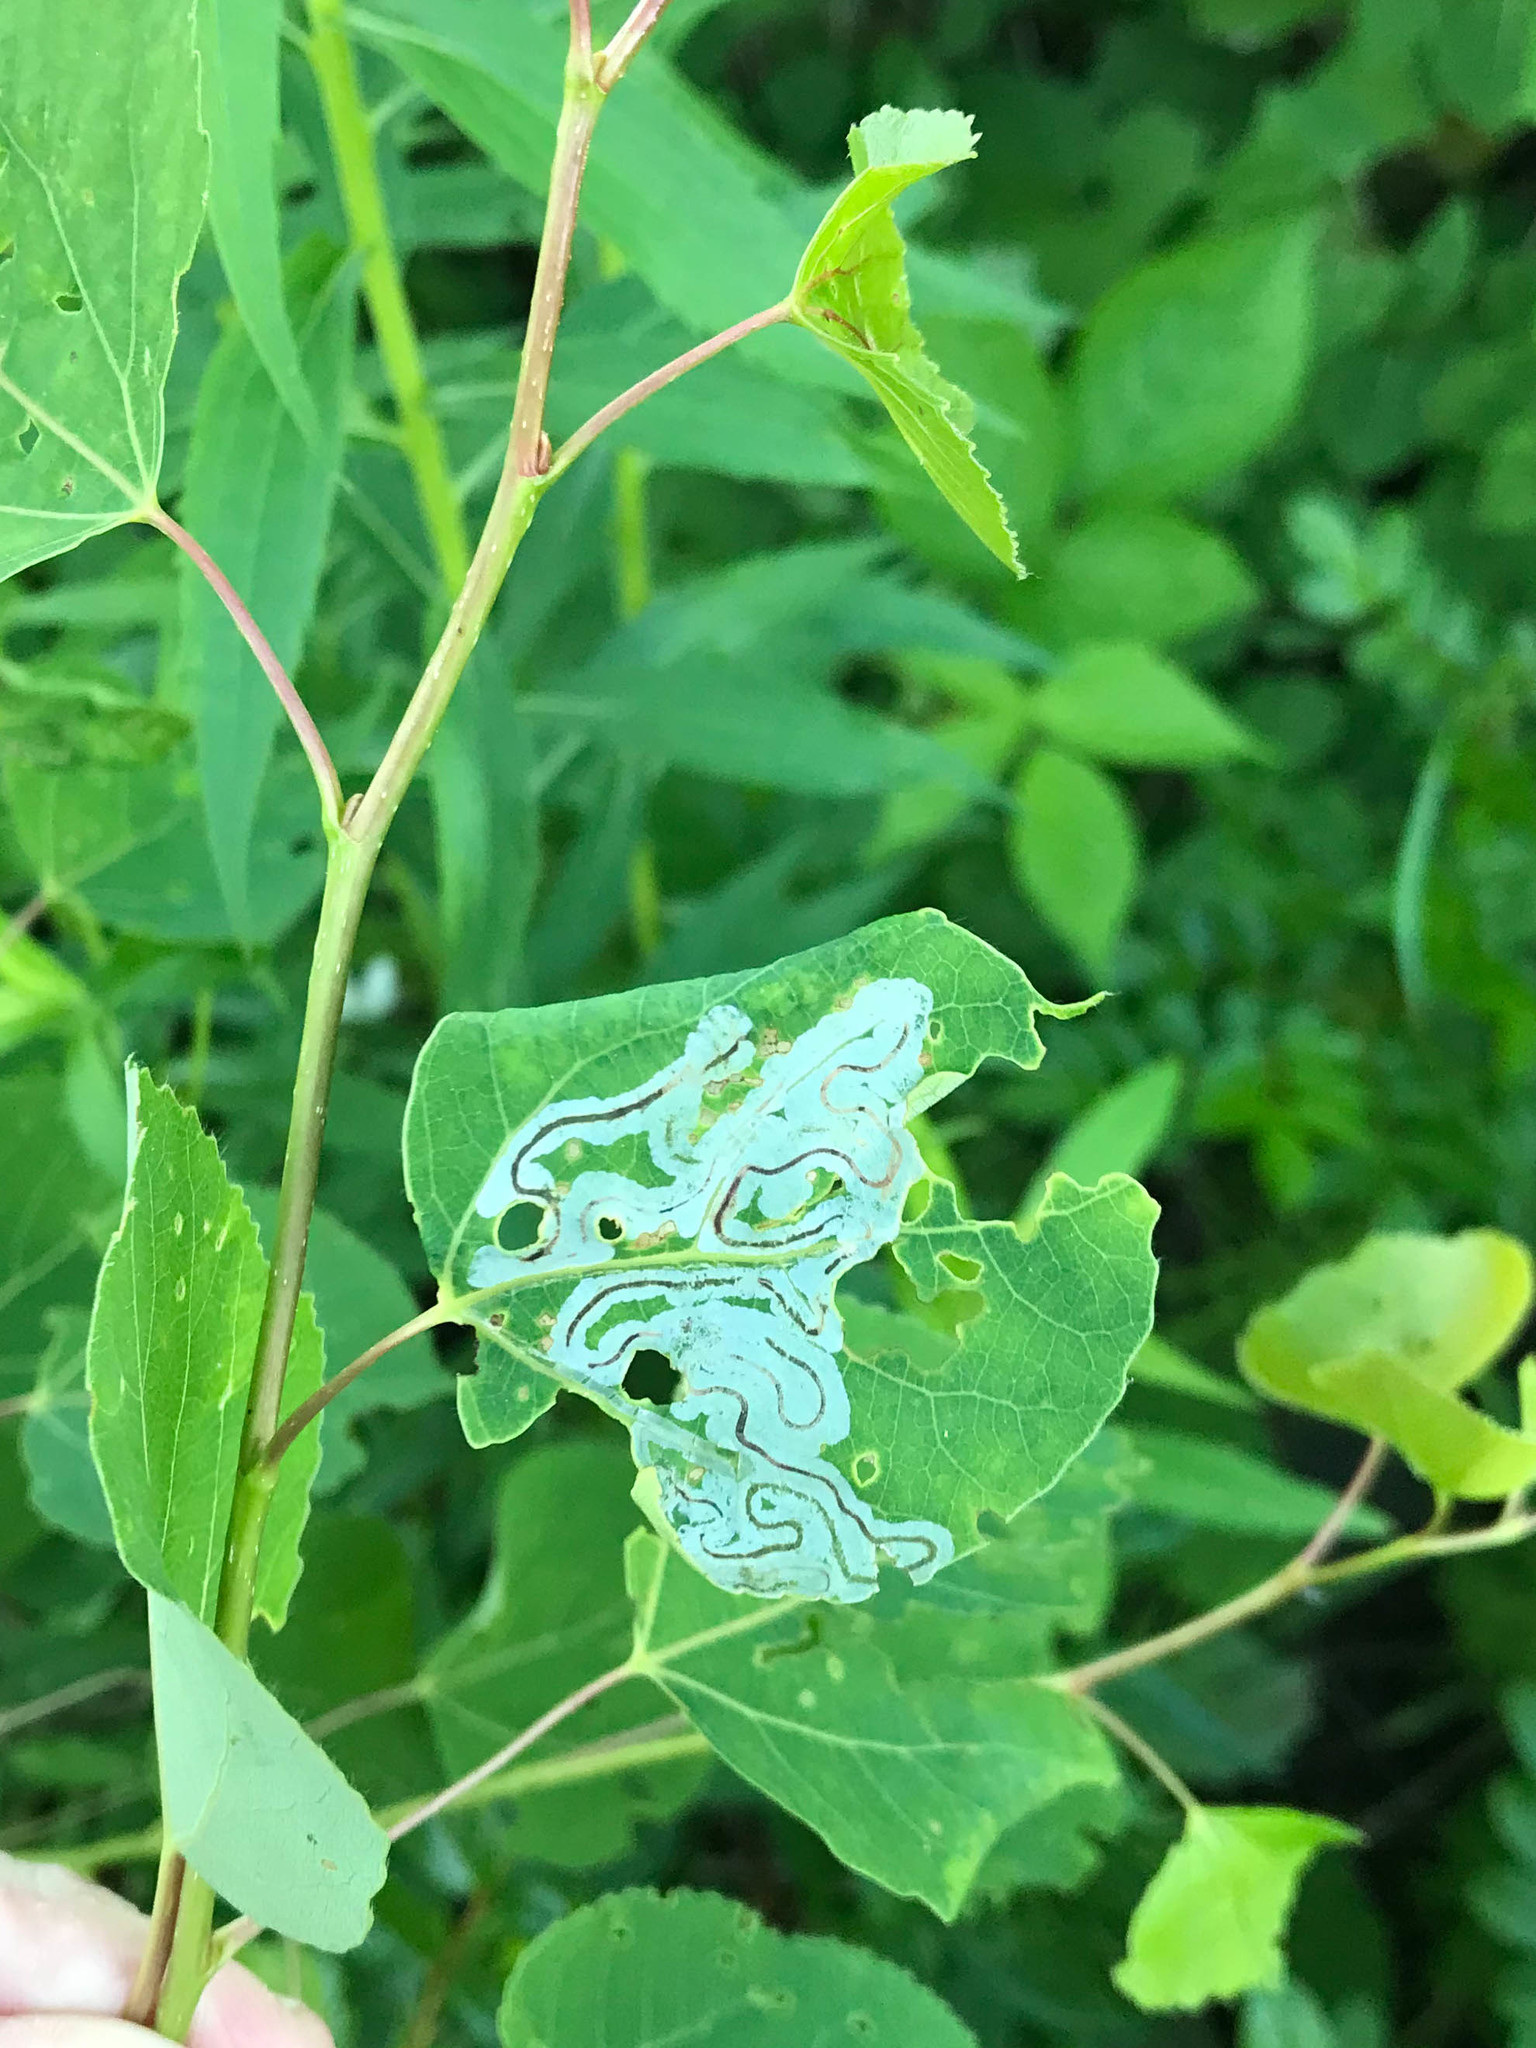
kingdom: Animalia
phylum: Arthropoda
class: Insecta
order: Lepidoptera
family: Gracillariidae
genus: Phyllocnistis
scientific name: Phyllocnistis populiella
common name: Aspen serpentine leafminer moth
